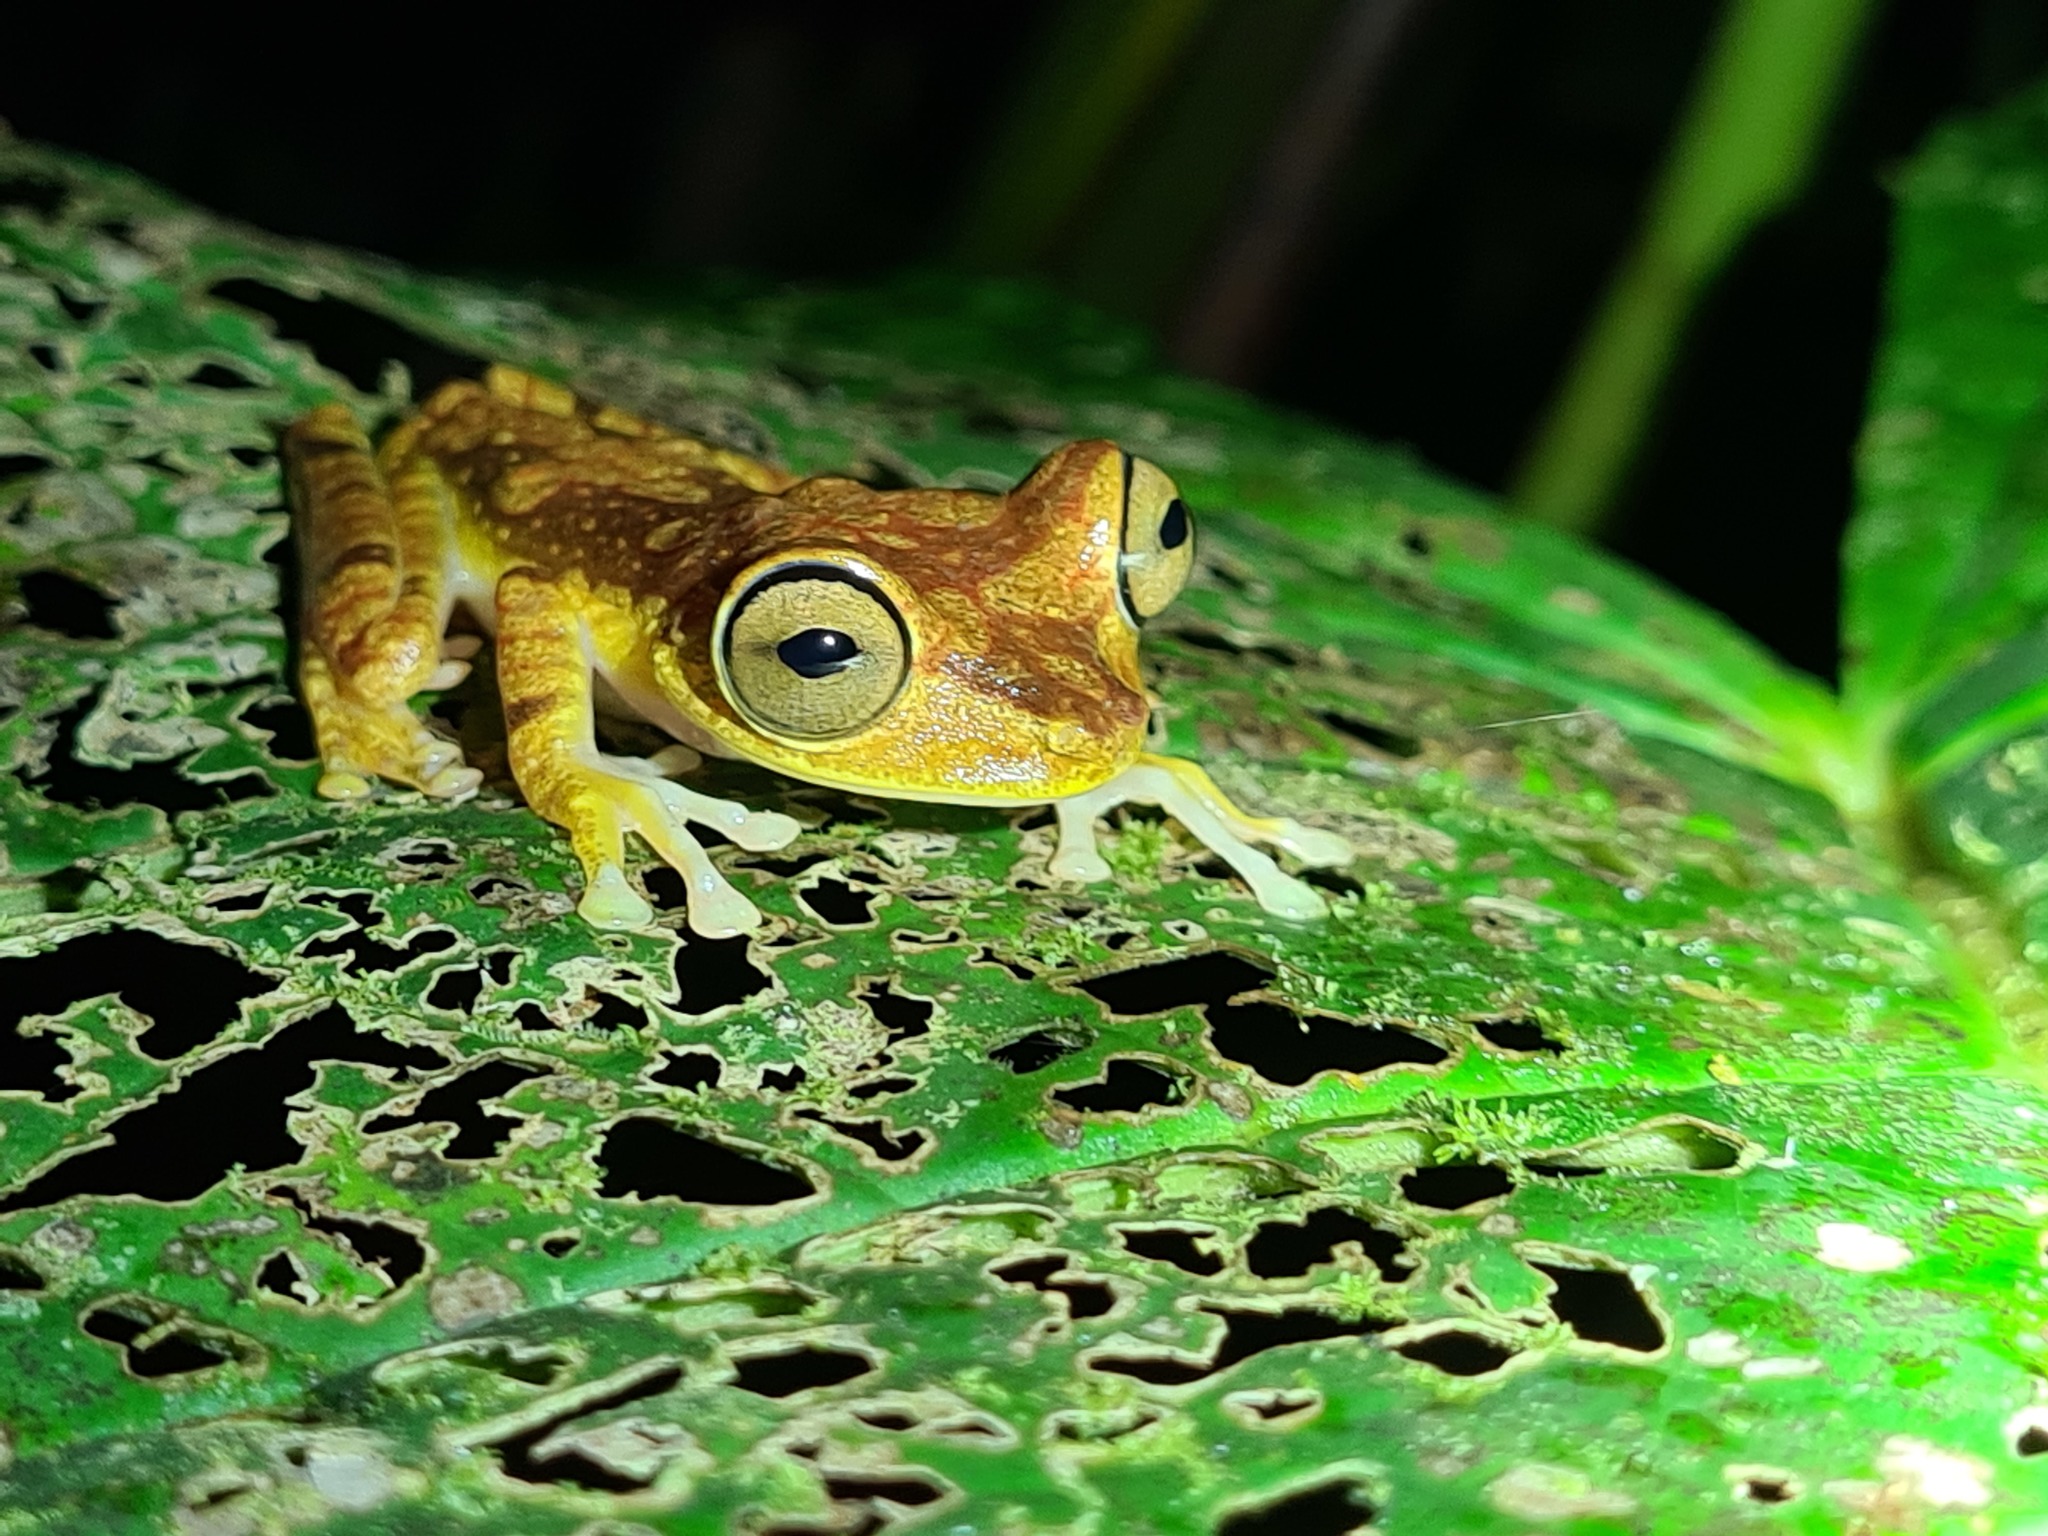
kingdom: Animalia
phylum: Chordata
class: Amphibia
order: Anura
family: Hylidae
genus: Boana
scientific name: Boana picturata
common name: Imbabura treefrog
